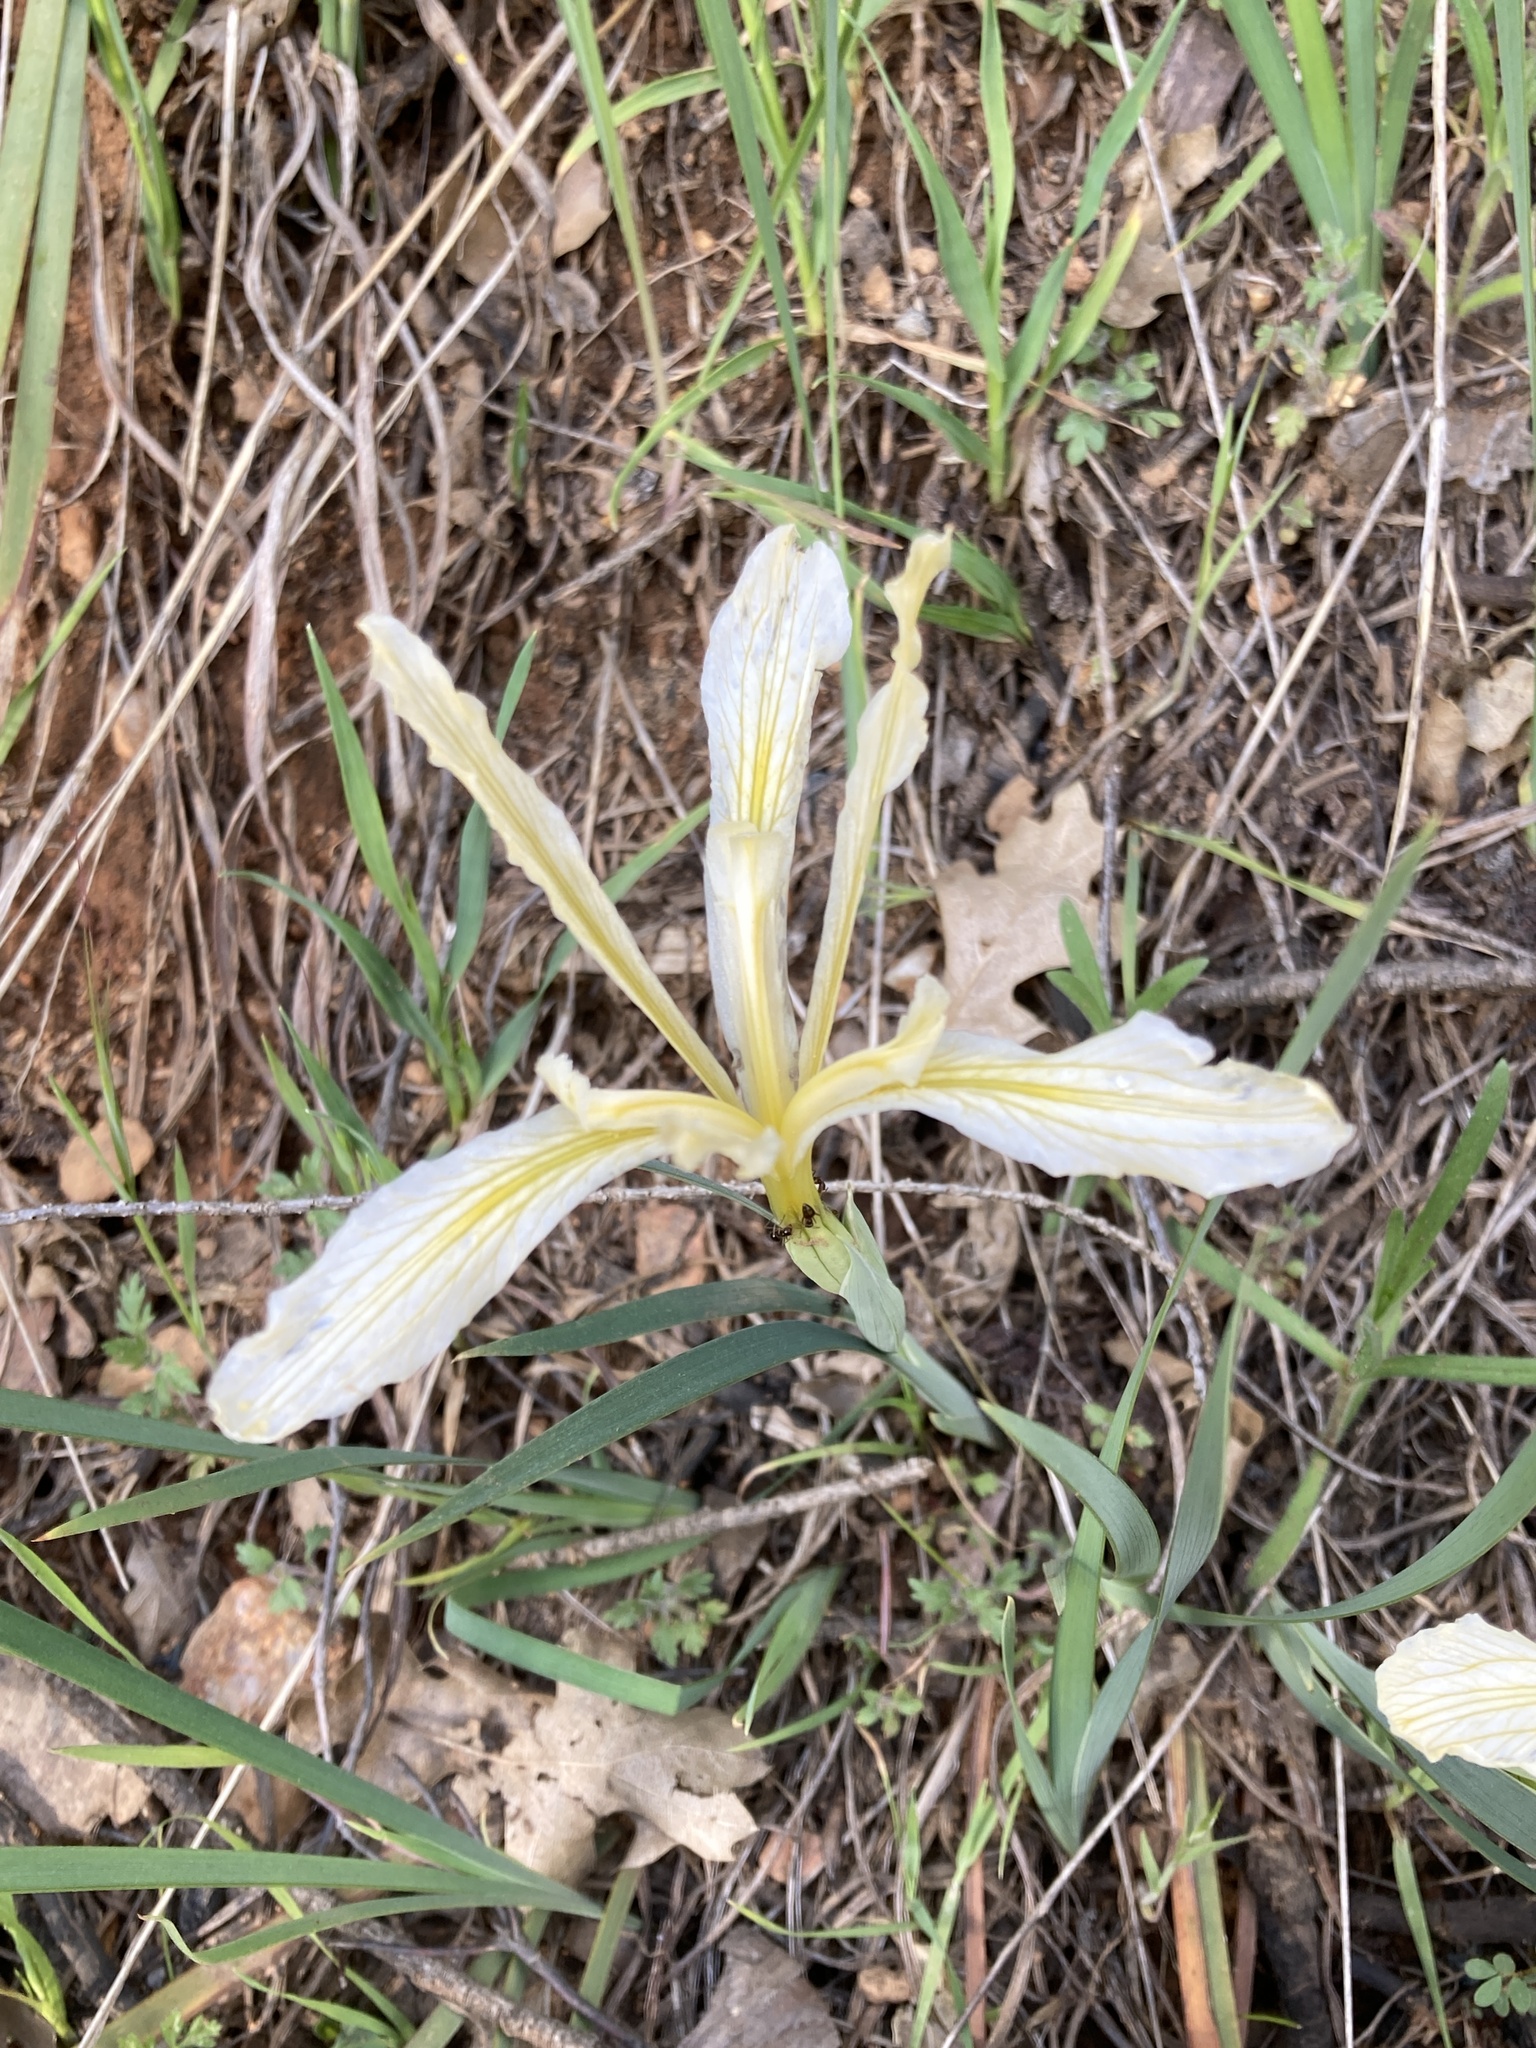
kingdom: Plantae
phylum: Tracheophyta
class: Liliopsida
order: Asparagales
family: Iridaceae
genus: Iris
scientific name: Iris hartwegii
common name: Sierra iris
